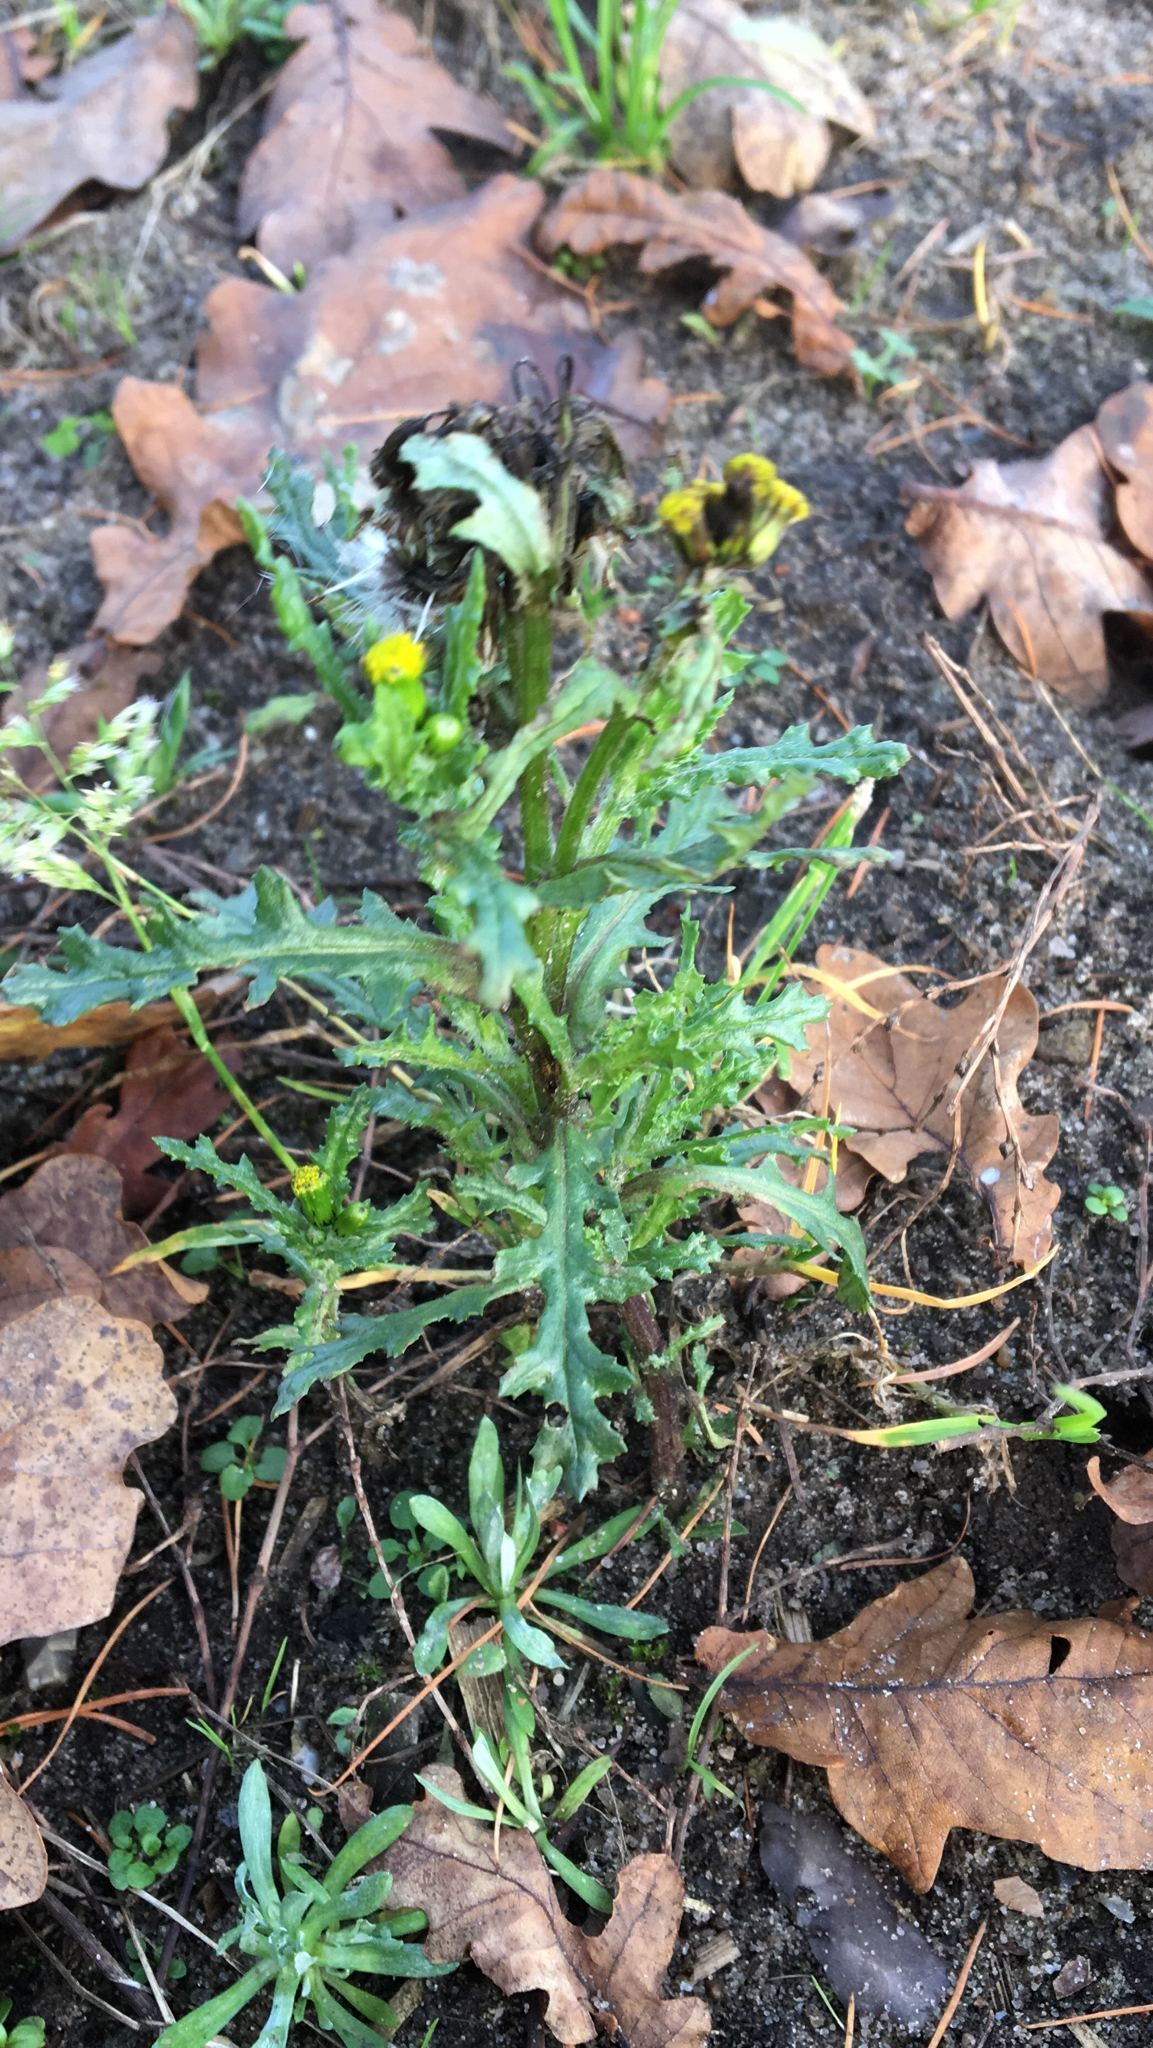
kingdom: Plantae
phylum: Tracheophyta
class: Magnoliopsida
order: Asterales
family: Asteraceae
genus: Senecio
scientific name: Senecio vulgaris
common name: Old-man-in-the-spring
